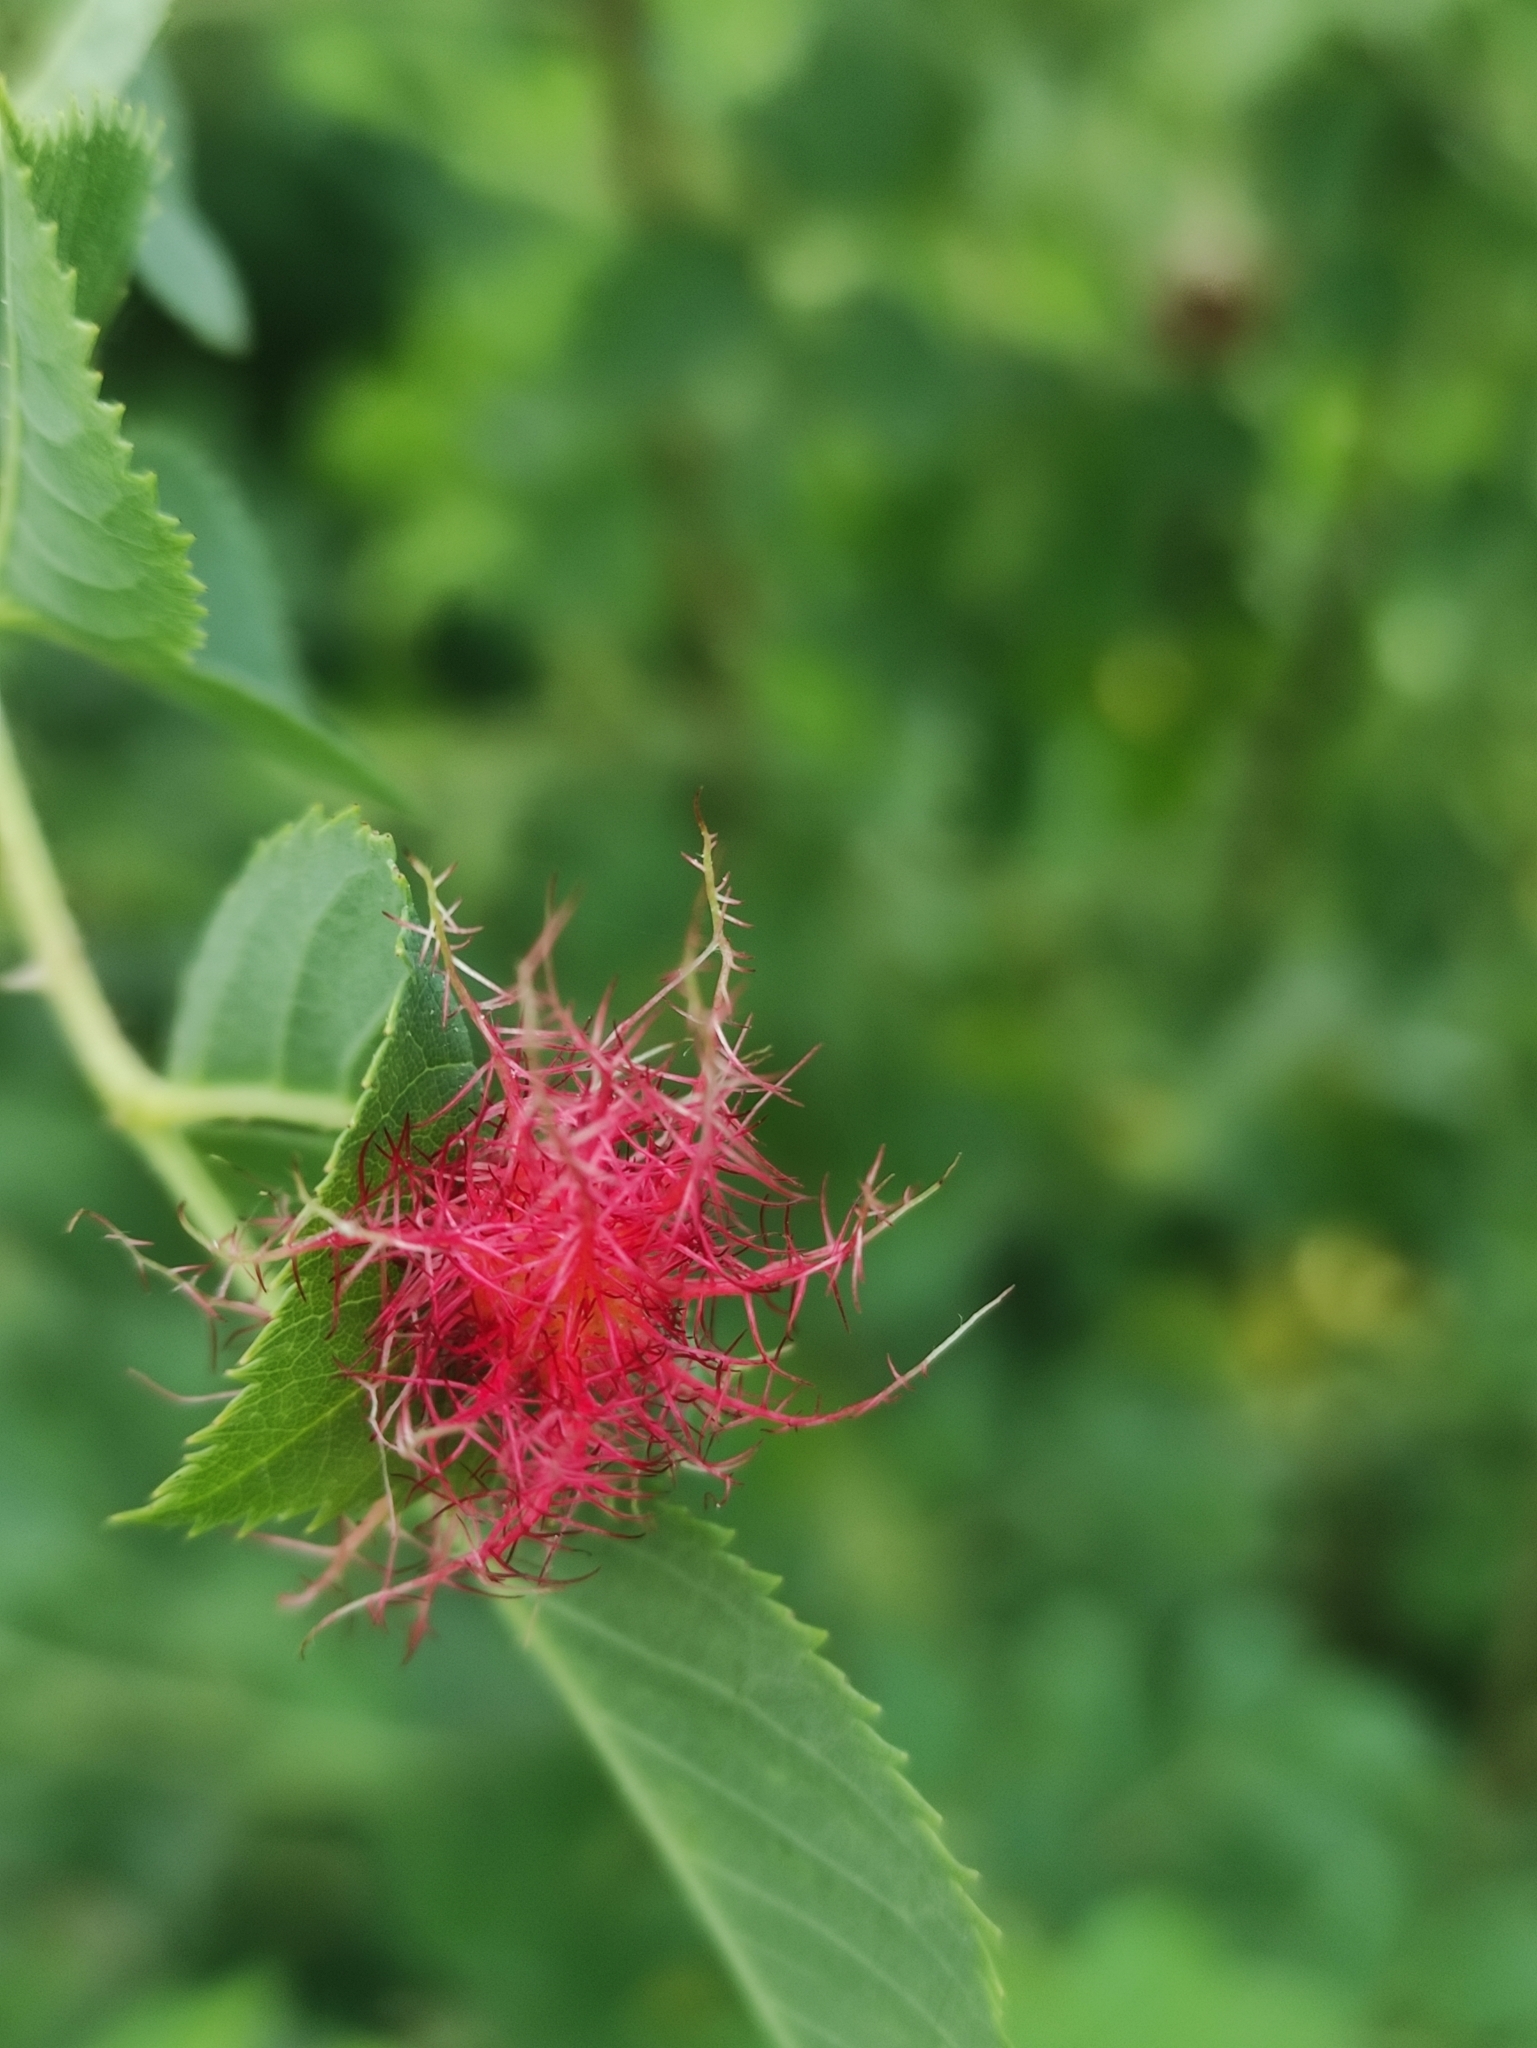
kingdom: Animalia
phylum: Arthropoda
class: Insecta
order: Hymenoptera
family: Cynipidae
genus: Diplolepis
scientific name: Diplolepis rosae
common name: Bedeguar gall
